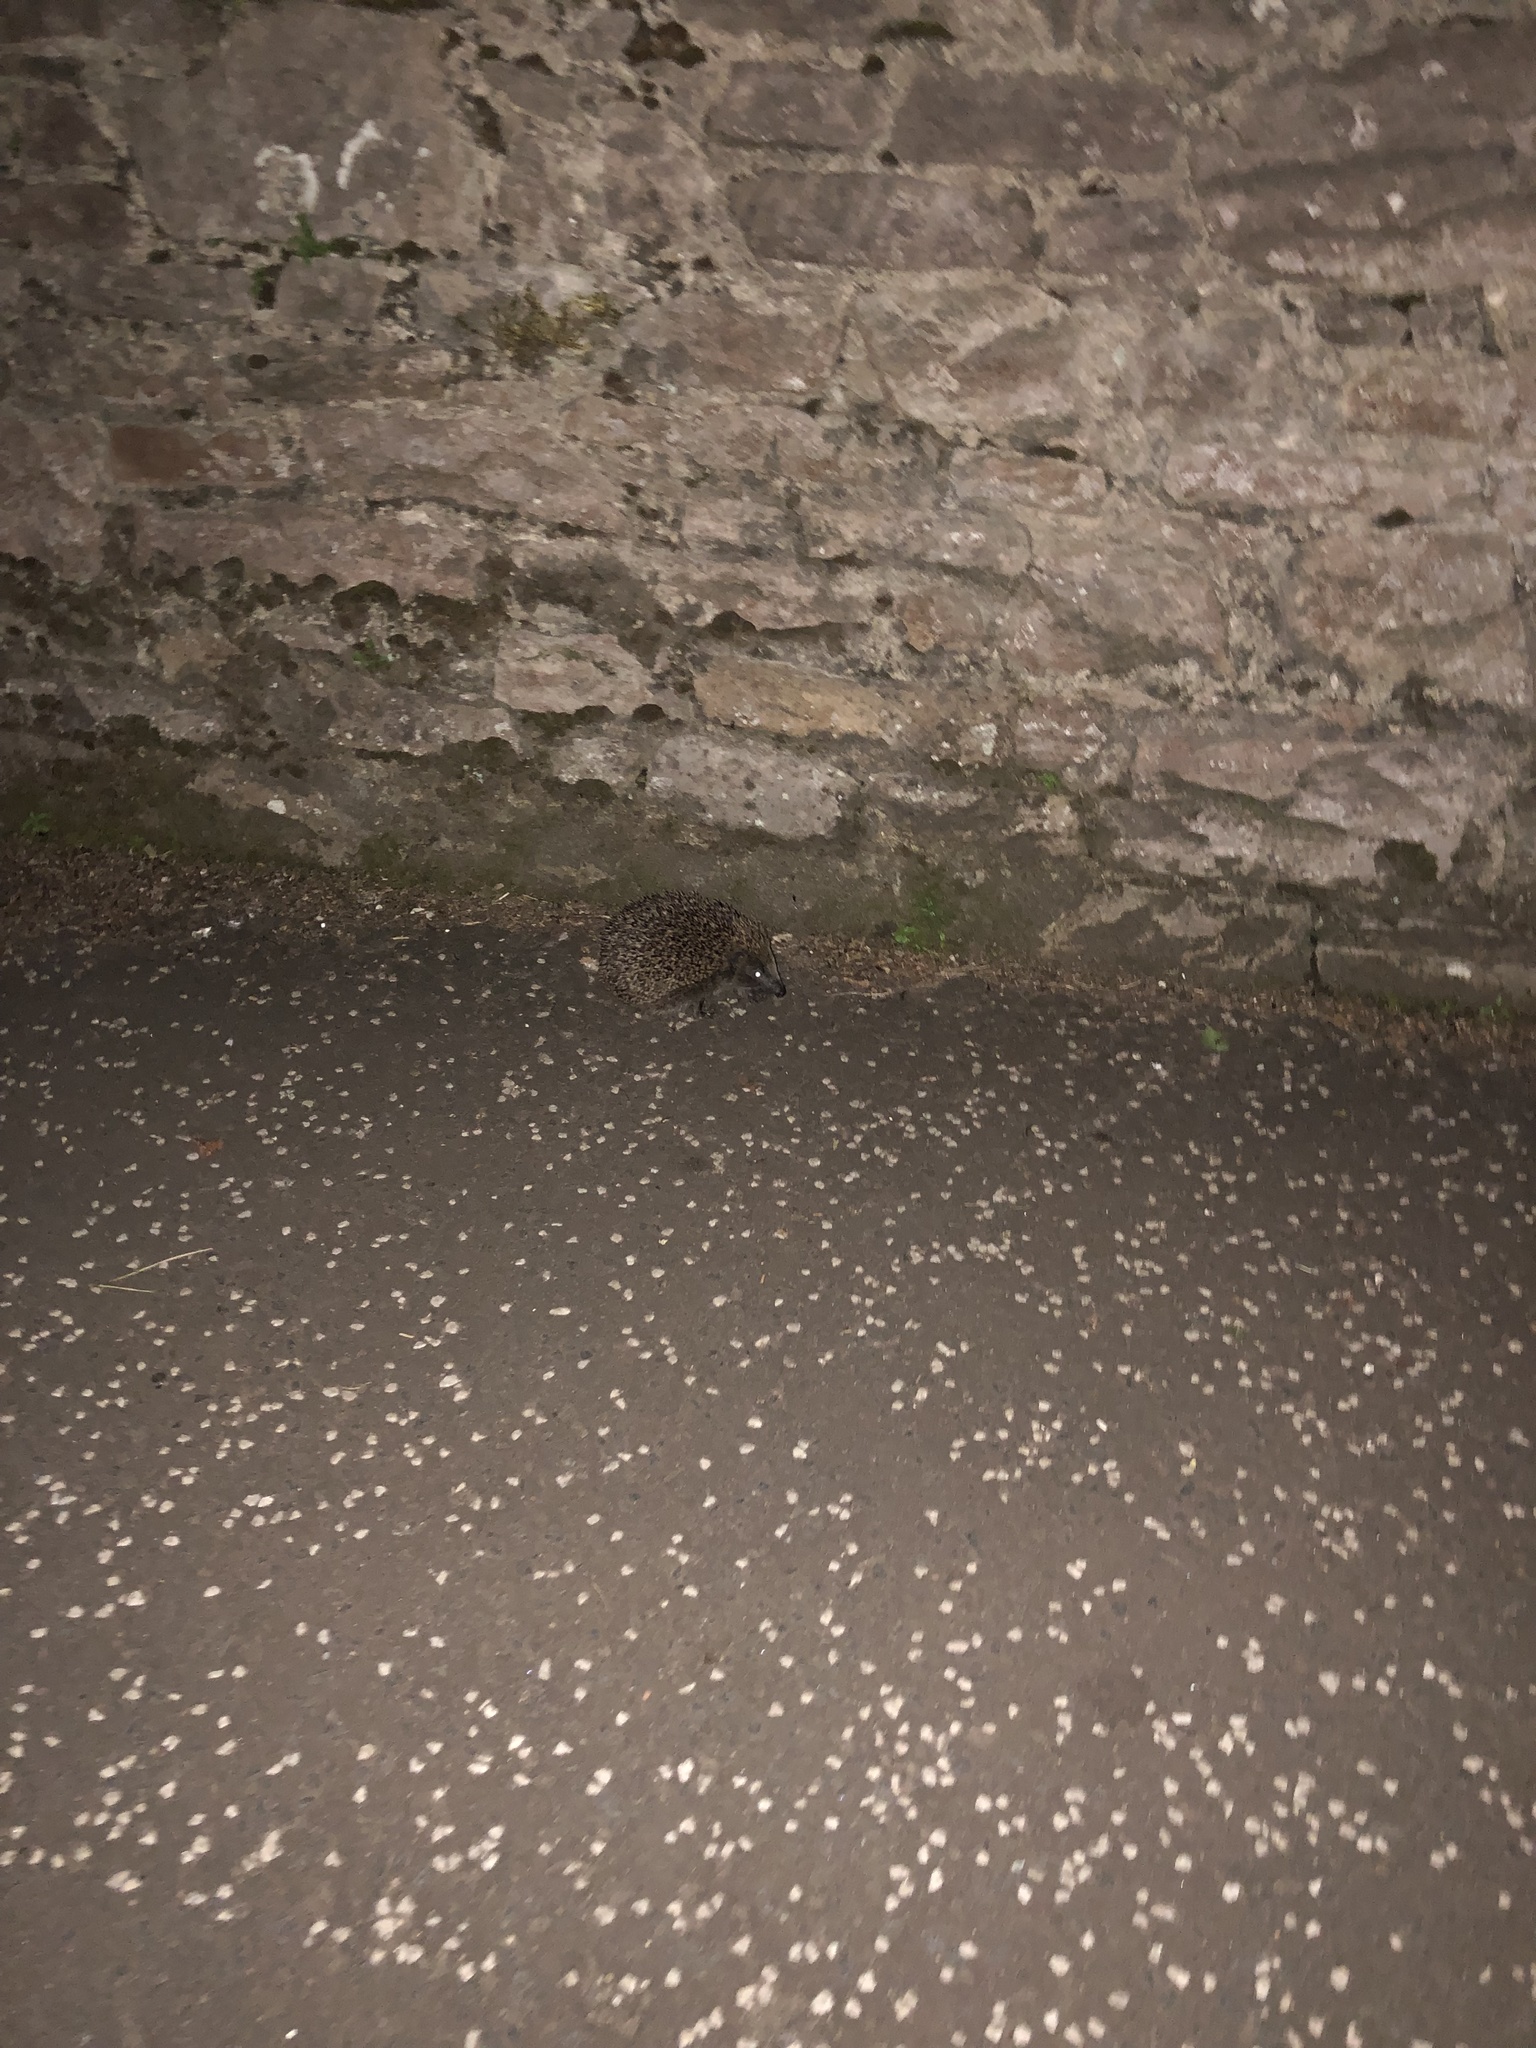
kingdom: Animalia
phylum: Chordata
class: Mammalia
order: Erinaceomorpha
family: Erinaceidae
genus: Erinaceus
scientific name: Erinaceus europaeus
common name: West european hedgehog
